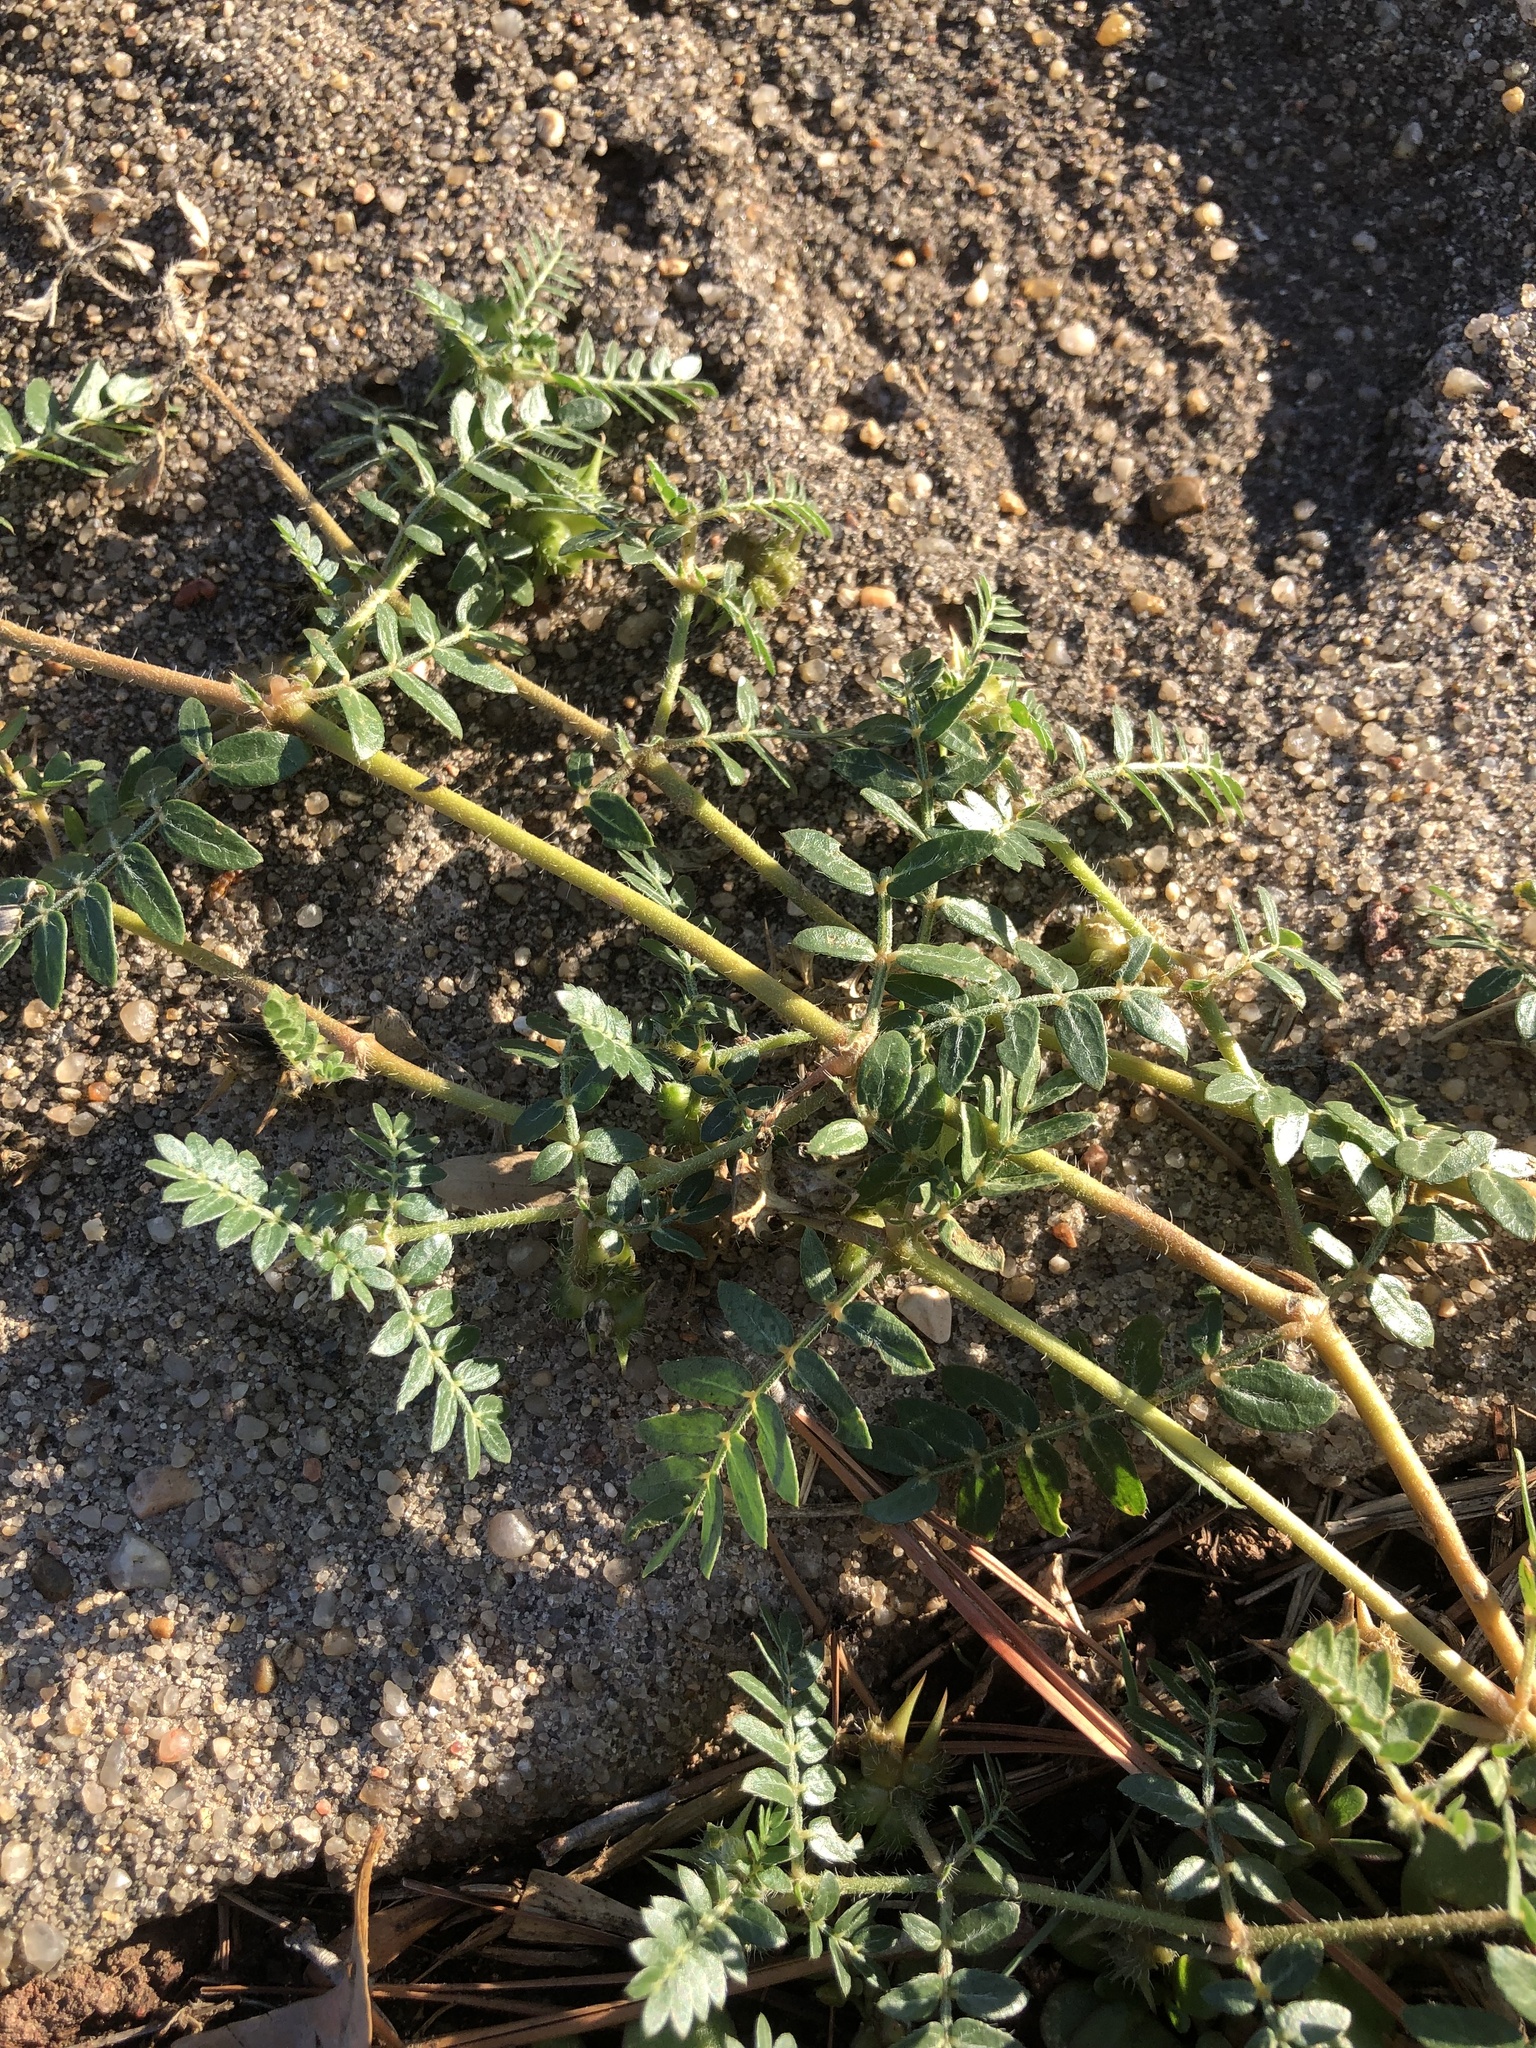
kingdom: Plantae
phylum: Tracheophyta
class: Magnoliopsida
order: Zygophyllales
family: Zygophyllaceae
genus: Tribulus
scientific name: Tribulus terrestris
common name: Puncturevine
